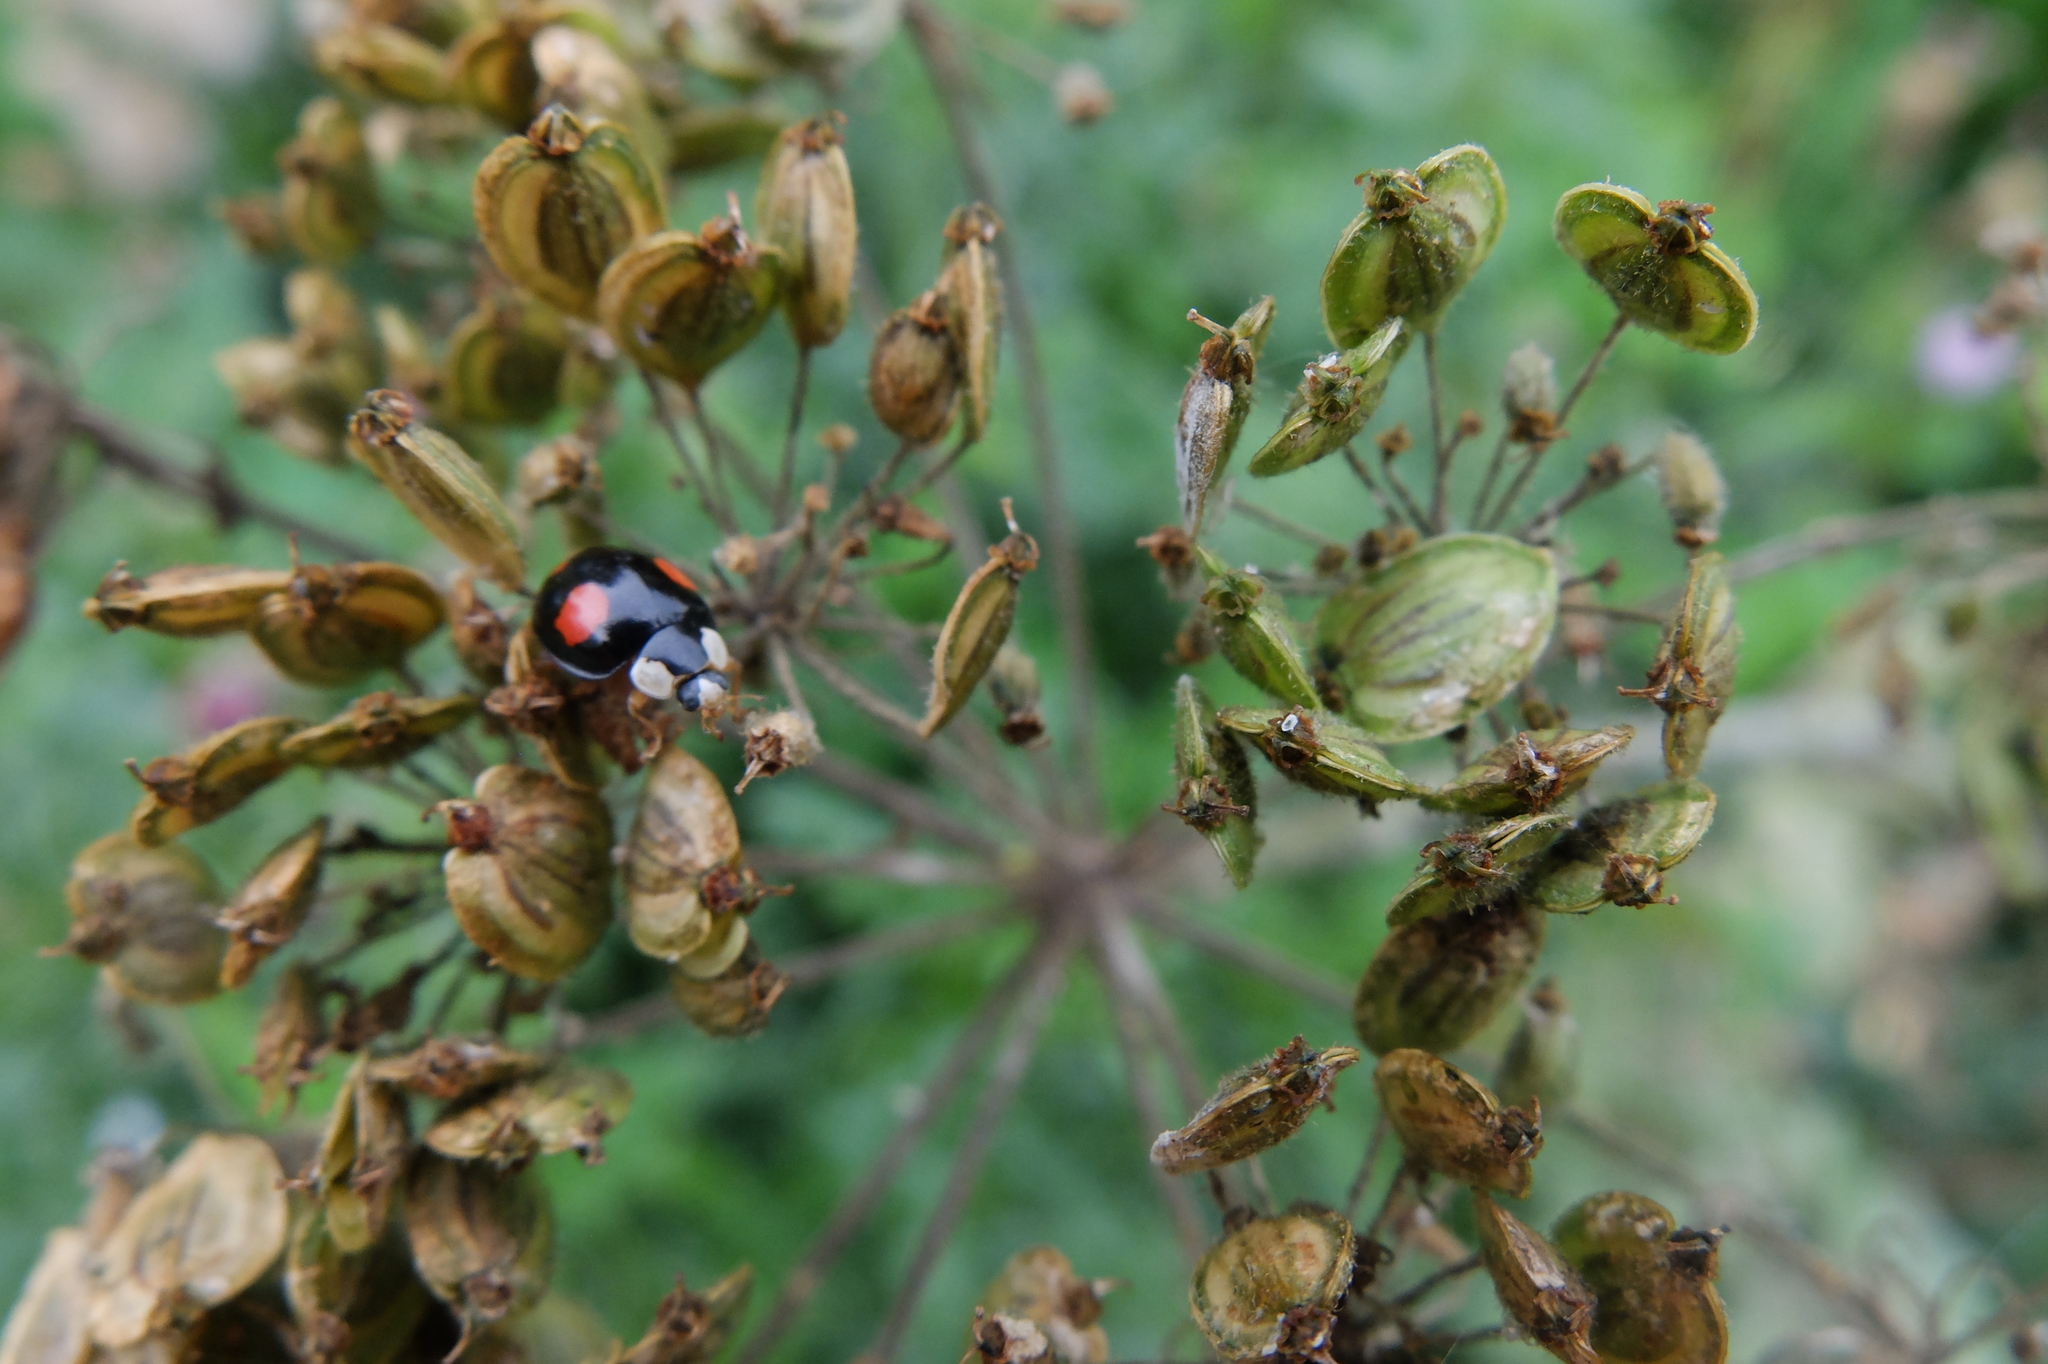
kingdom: Animalia
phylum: Arthropoda
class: Insecta
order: Coleoptera
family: Coccinellidae
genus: Harmonia
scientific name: Harmonia axyridis
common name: Harlequin ladybird
